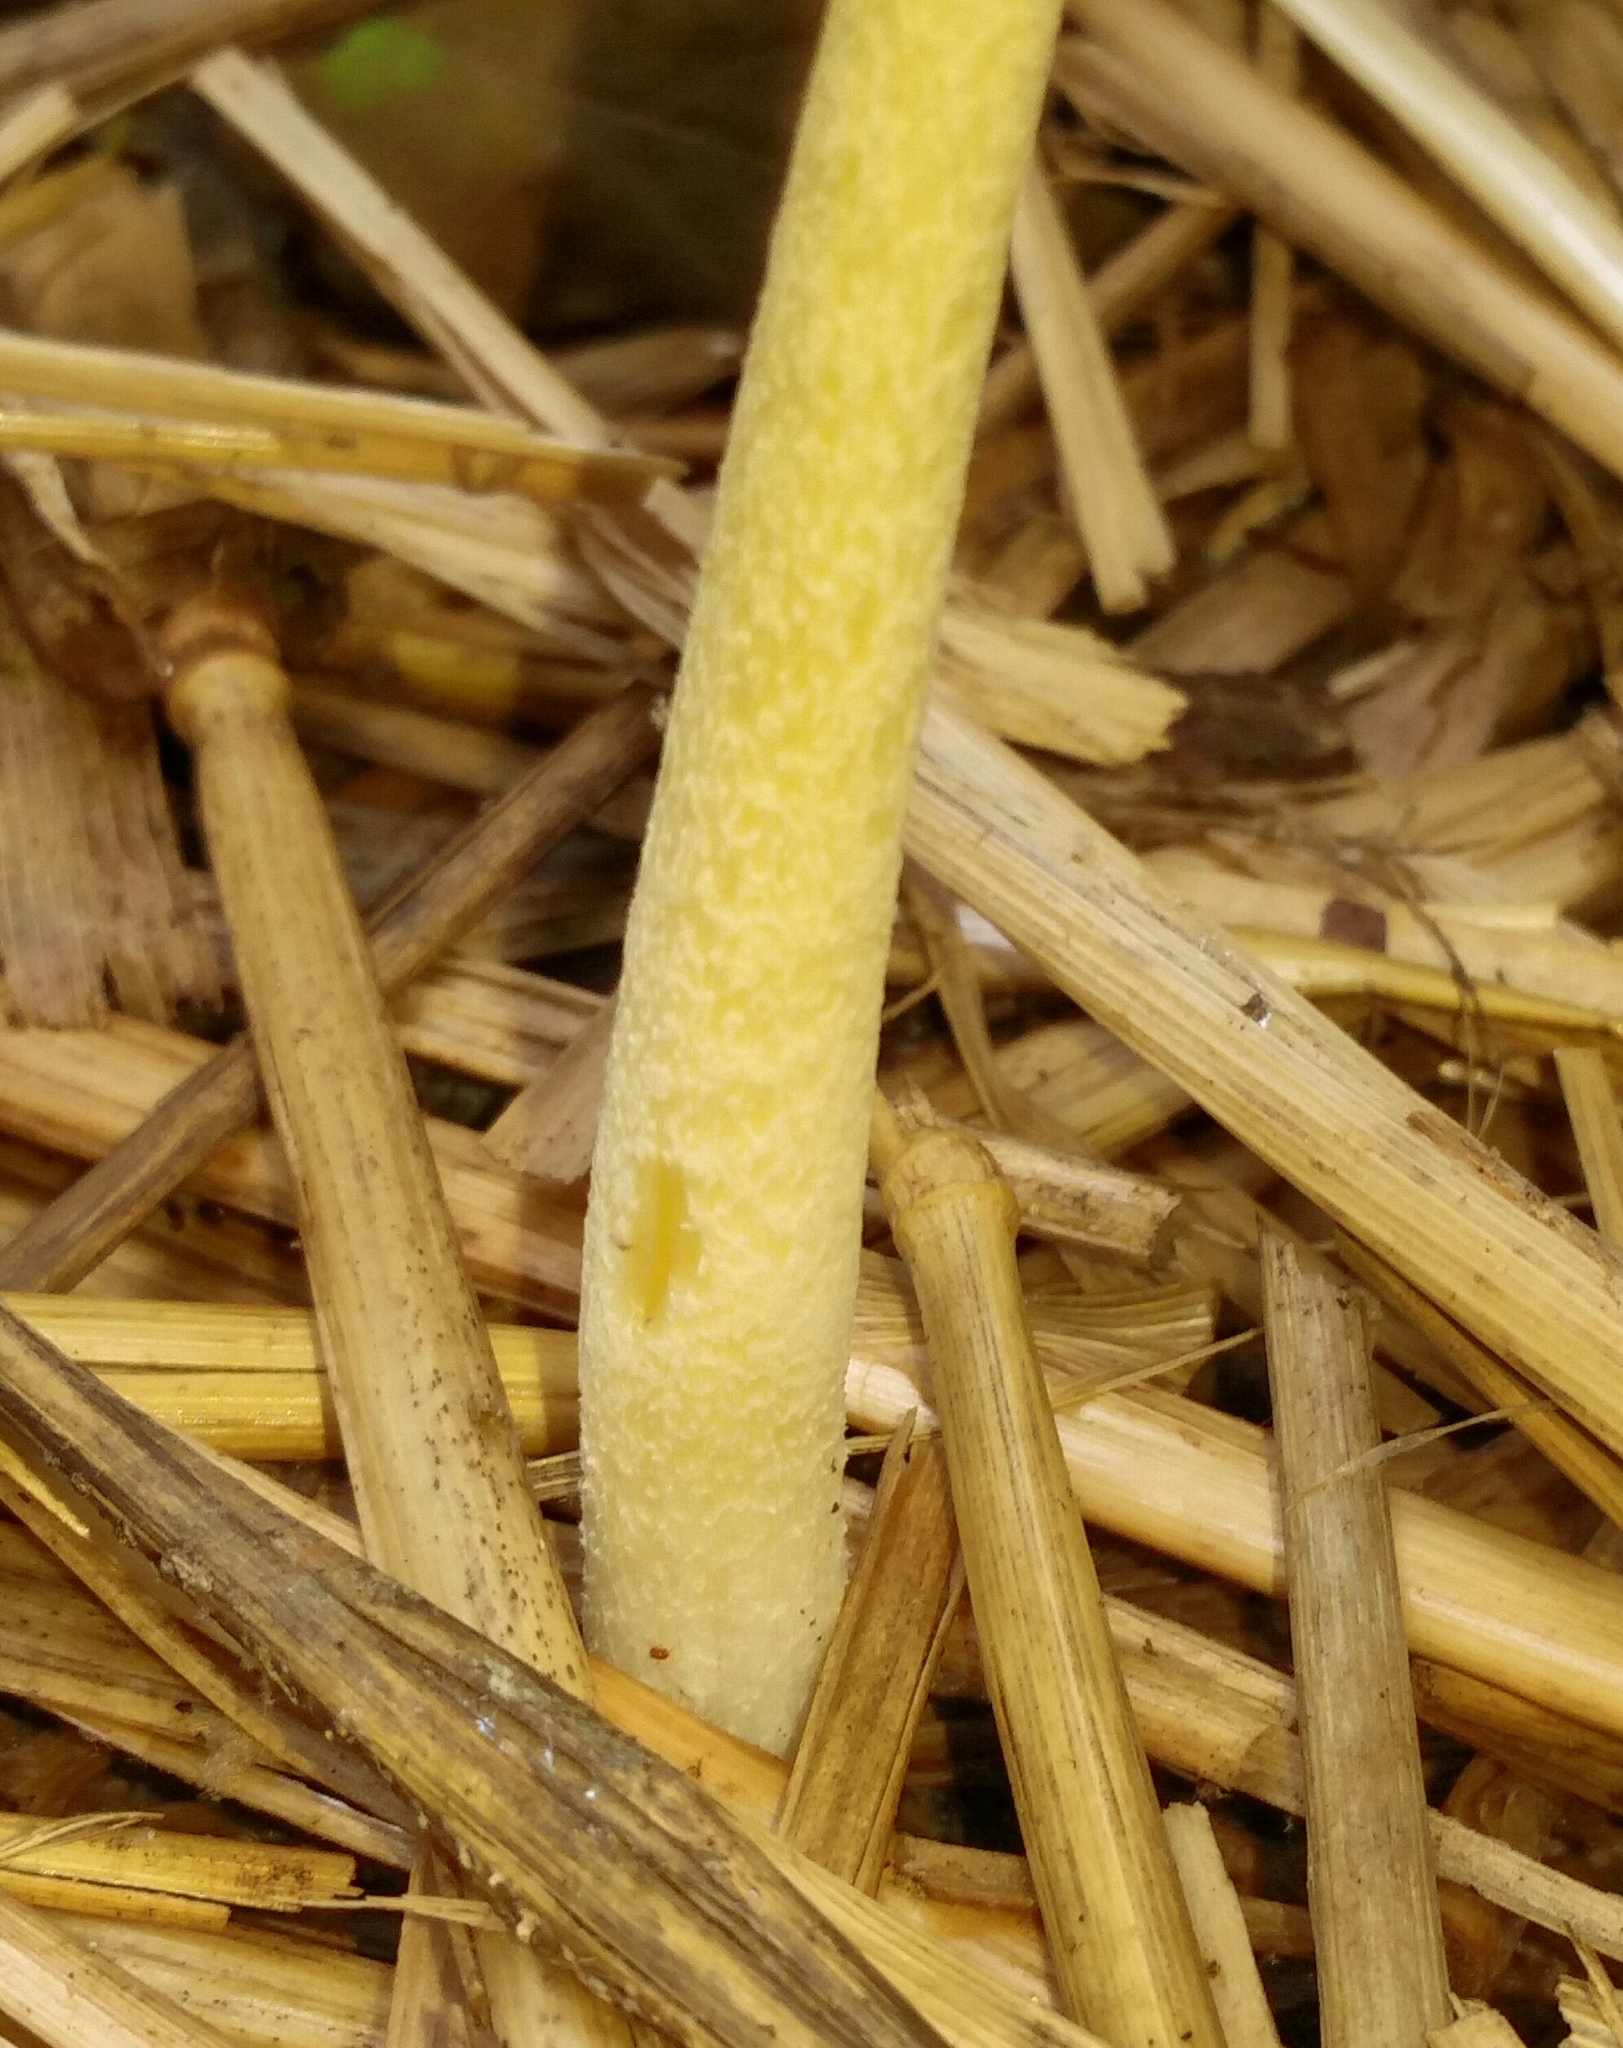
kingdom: Fungi
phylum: Basidiomycota
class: Agaricomycetes
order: Agaricales
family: Bolbitiaceae
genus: Bolbitius
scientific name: Bolbitius titubans
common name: Yellow fieldcap
